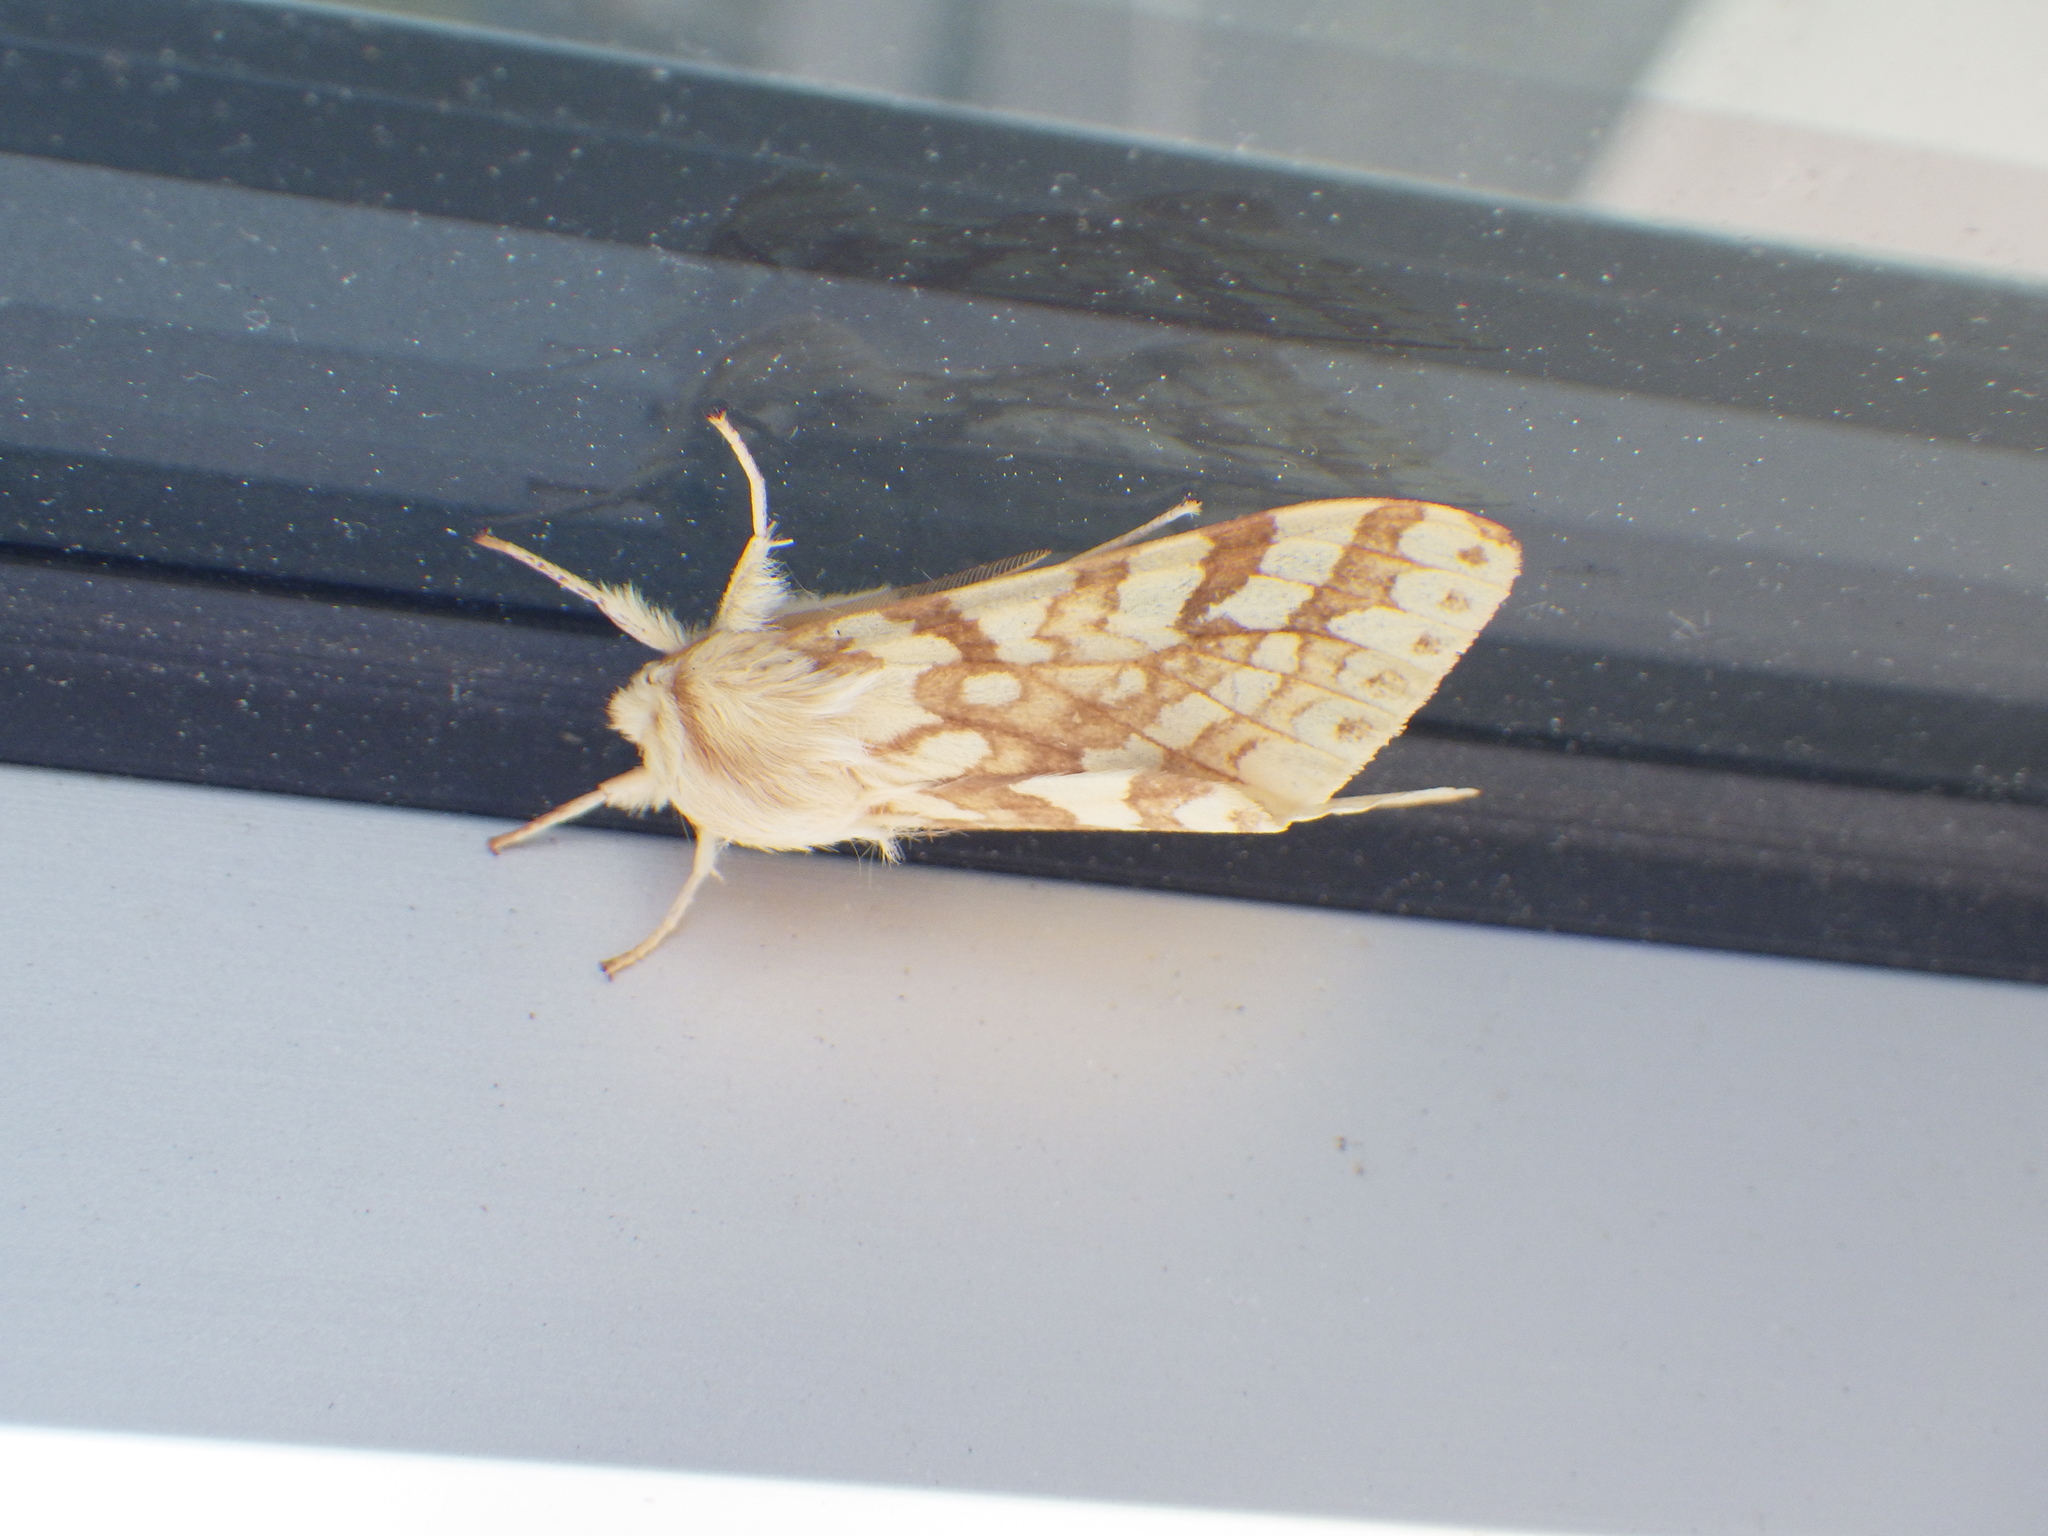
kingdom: Animalia
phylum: Arthropoda
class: Insecta
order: Lepidoptera
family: Erebidae
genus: Lophocampa
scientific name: Lophocampa maculata
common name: Spotted tussock moth
